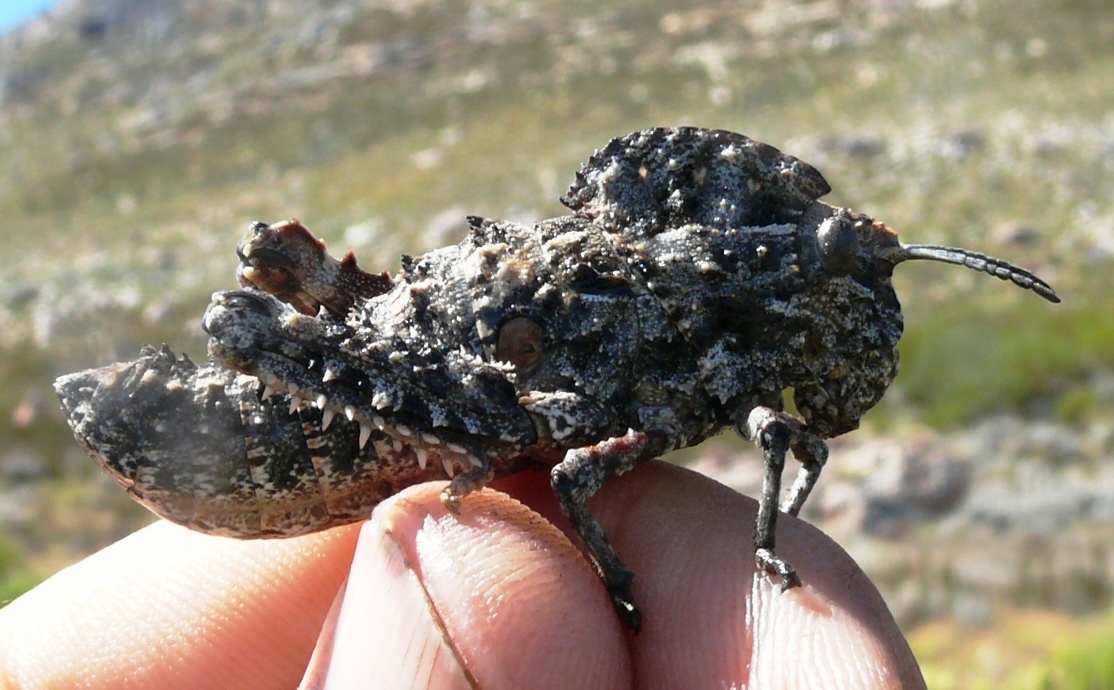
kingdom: Animalia
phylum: Arthropoda
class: Insecta
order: Orthoptera
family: Pamphagidae
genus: Porthetis
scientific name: Porthetis carinata
